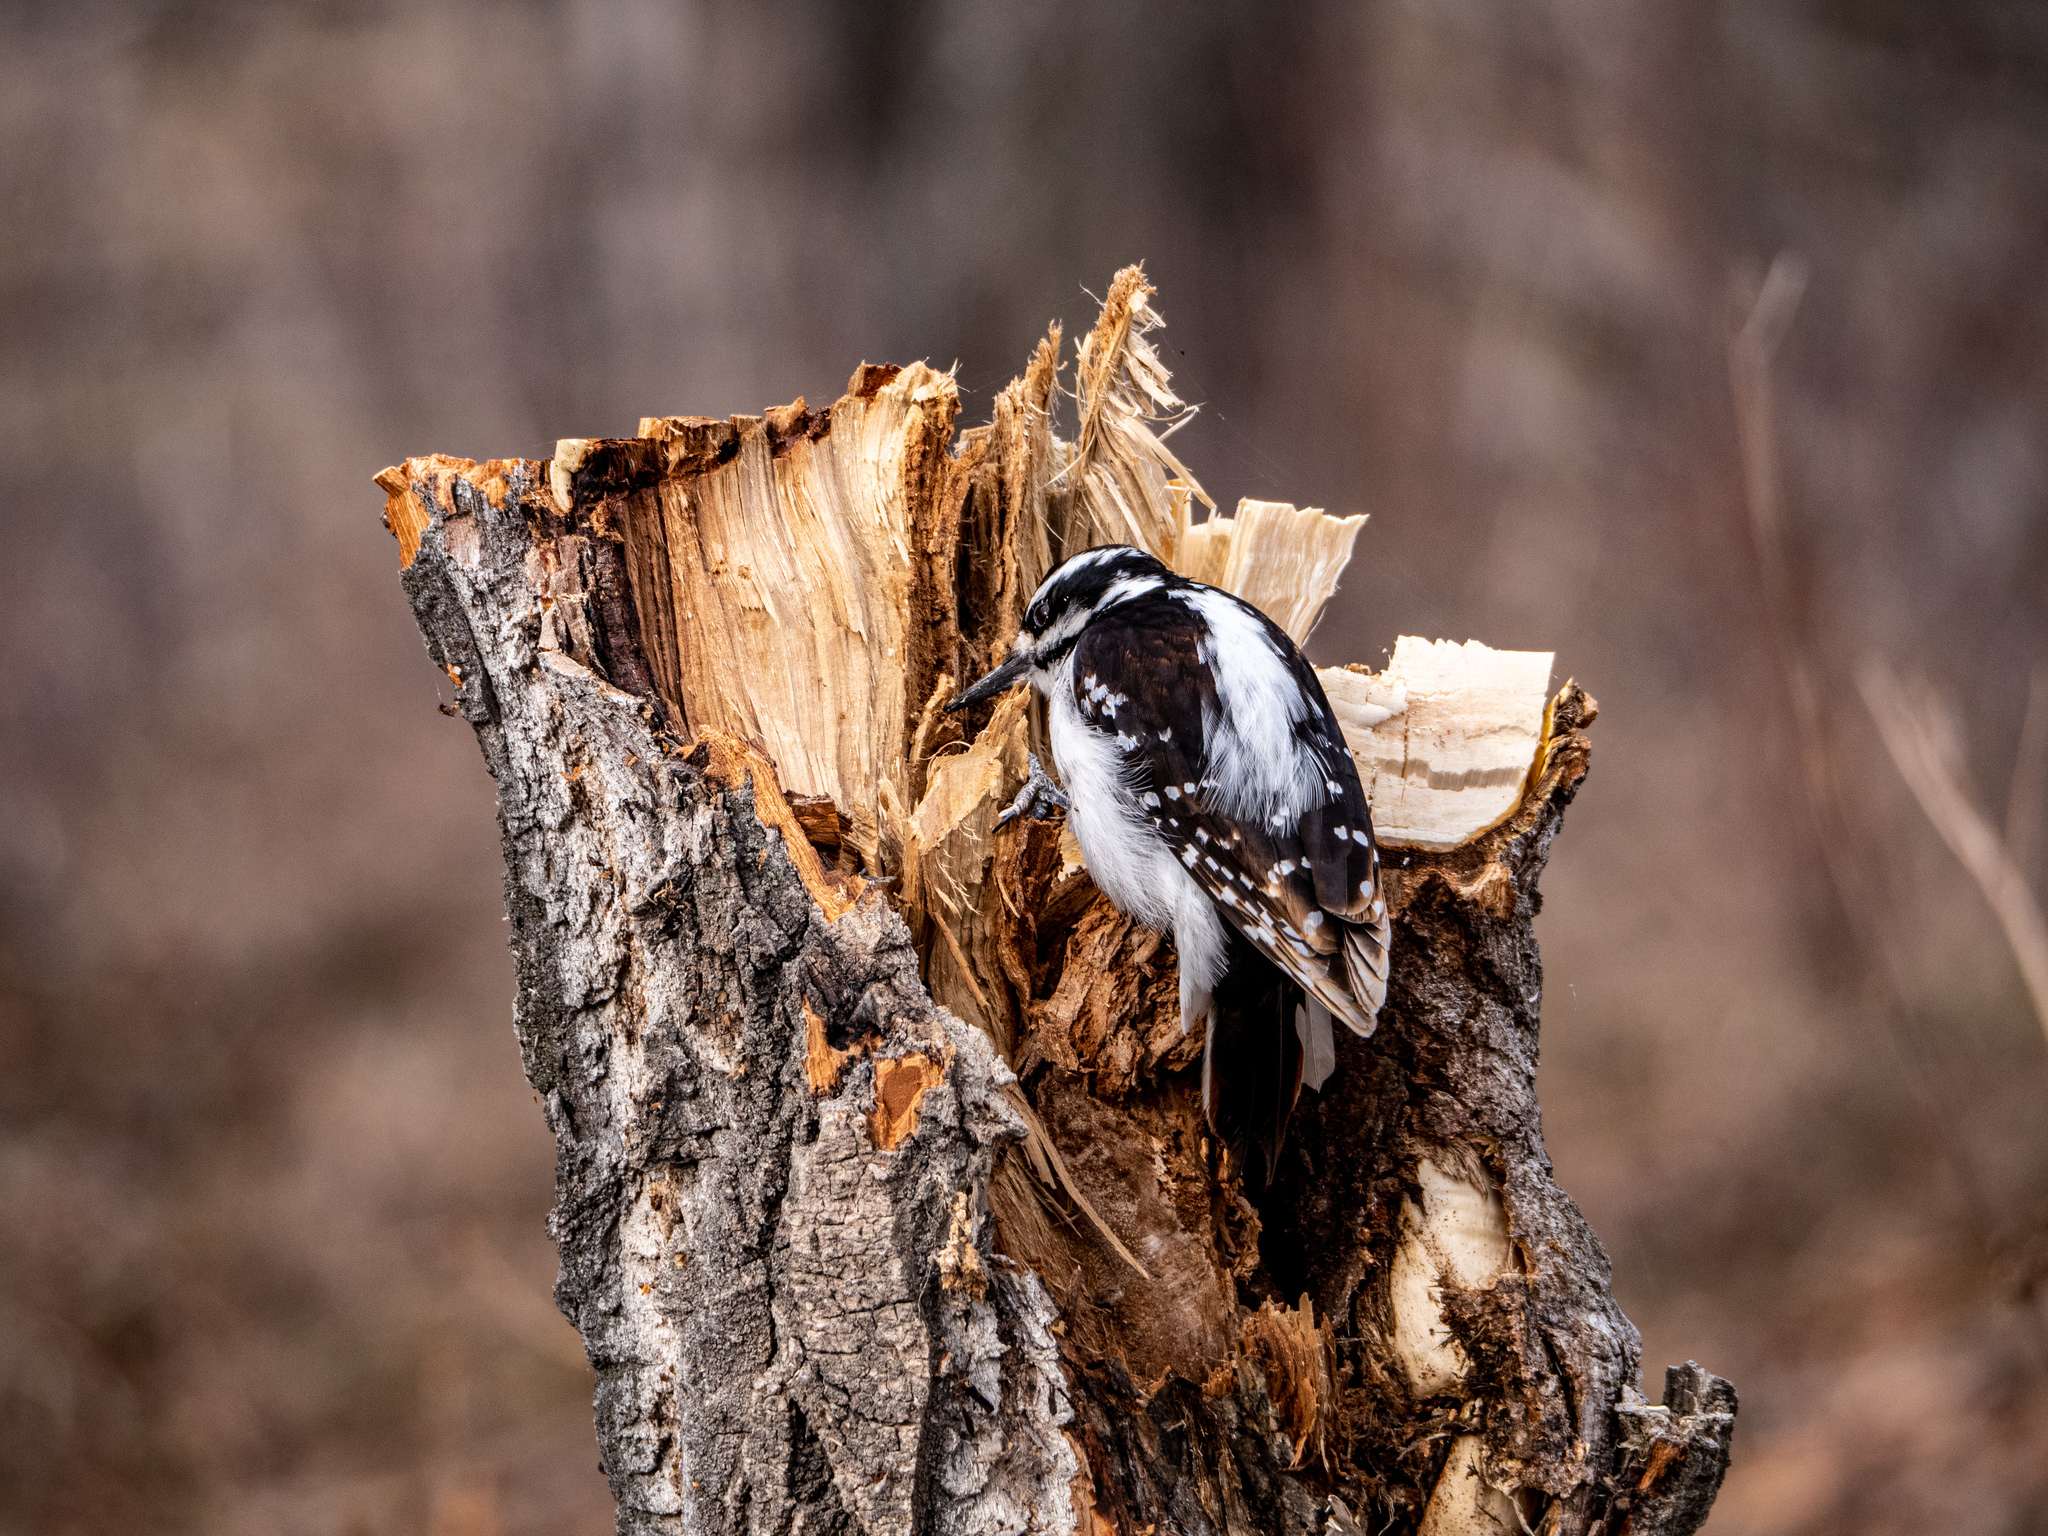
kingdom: Animalia
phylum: Chordata
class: Aves
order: Piciformes
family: Picidae
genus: Leuconotopicus
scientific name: Leuconotopicus villosus
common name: Hairy woodpecker
